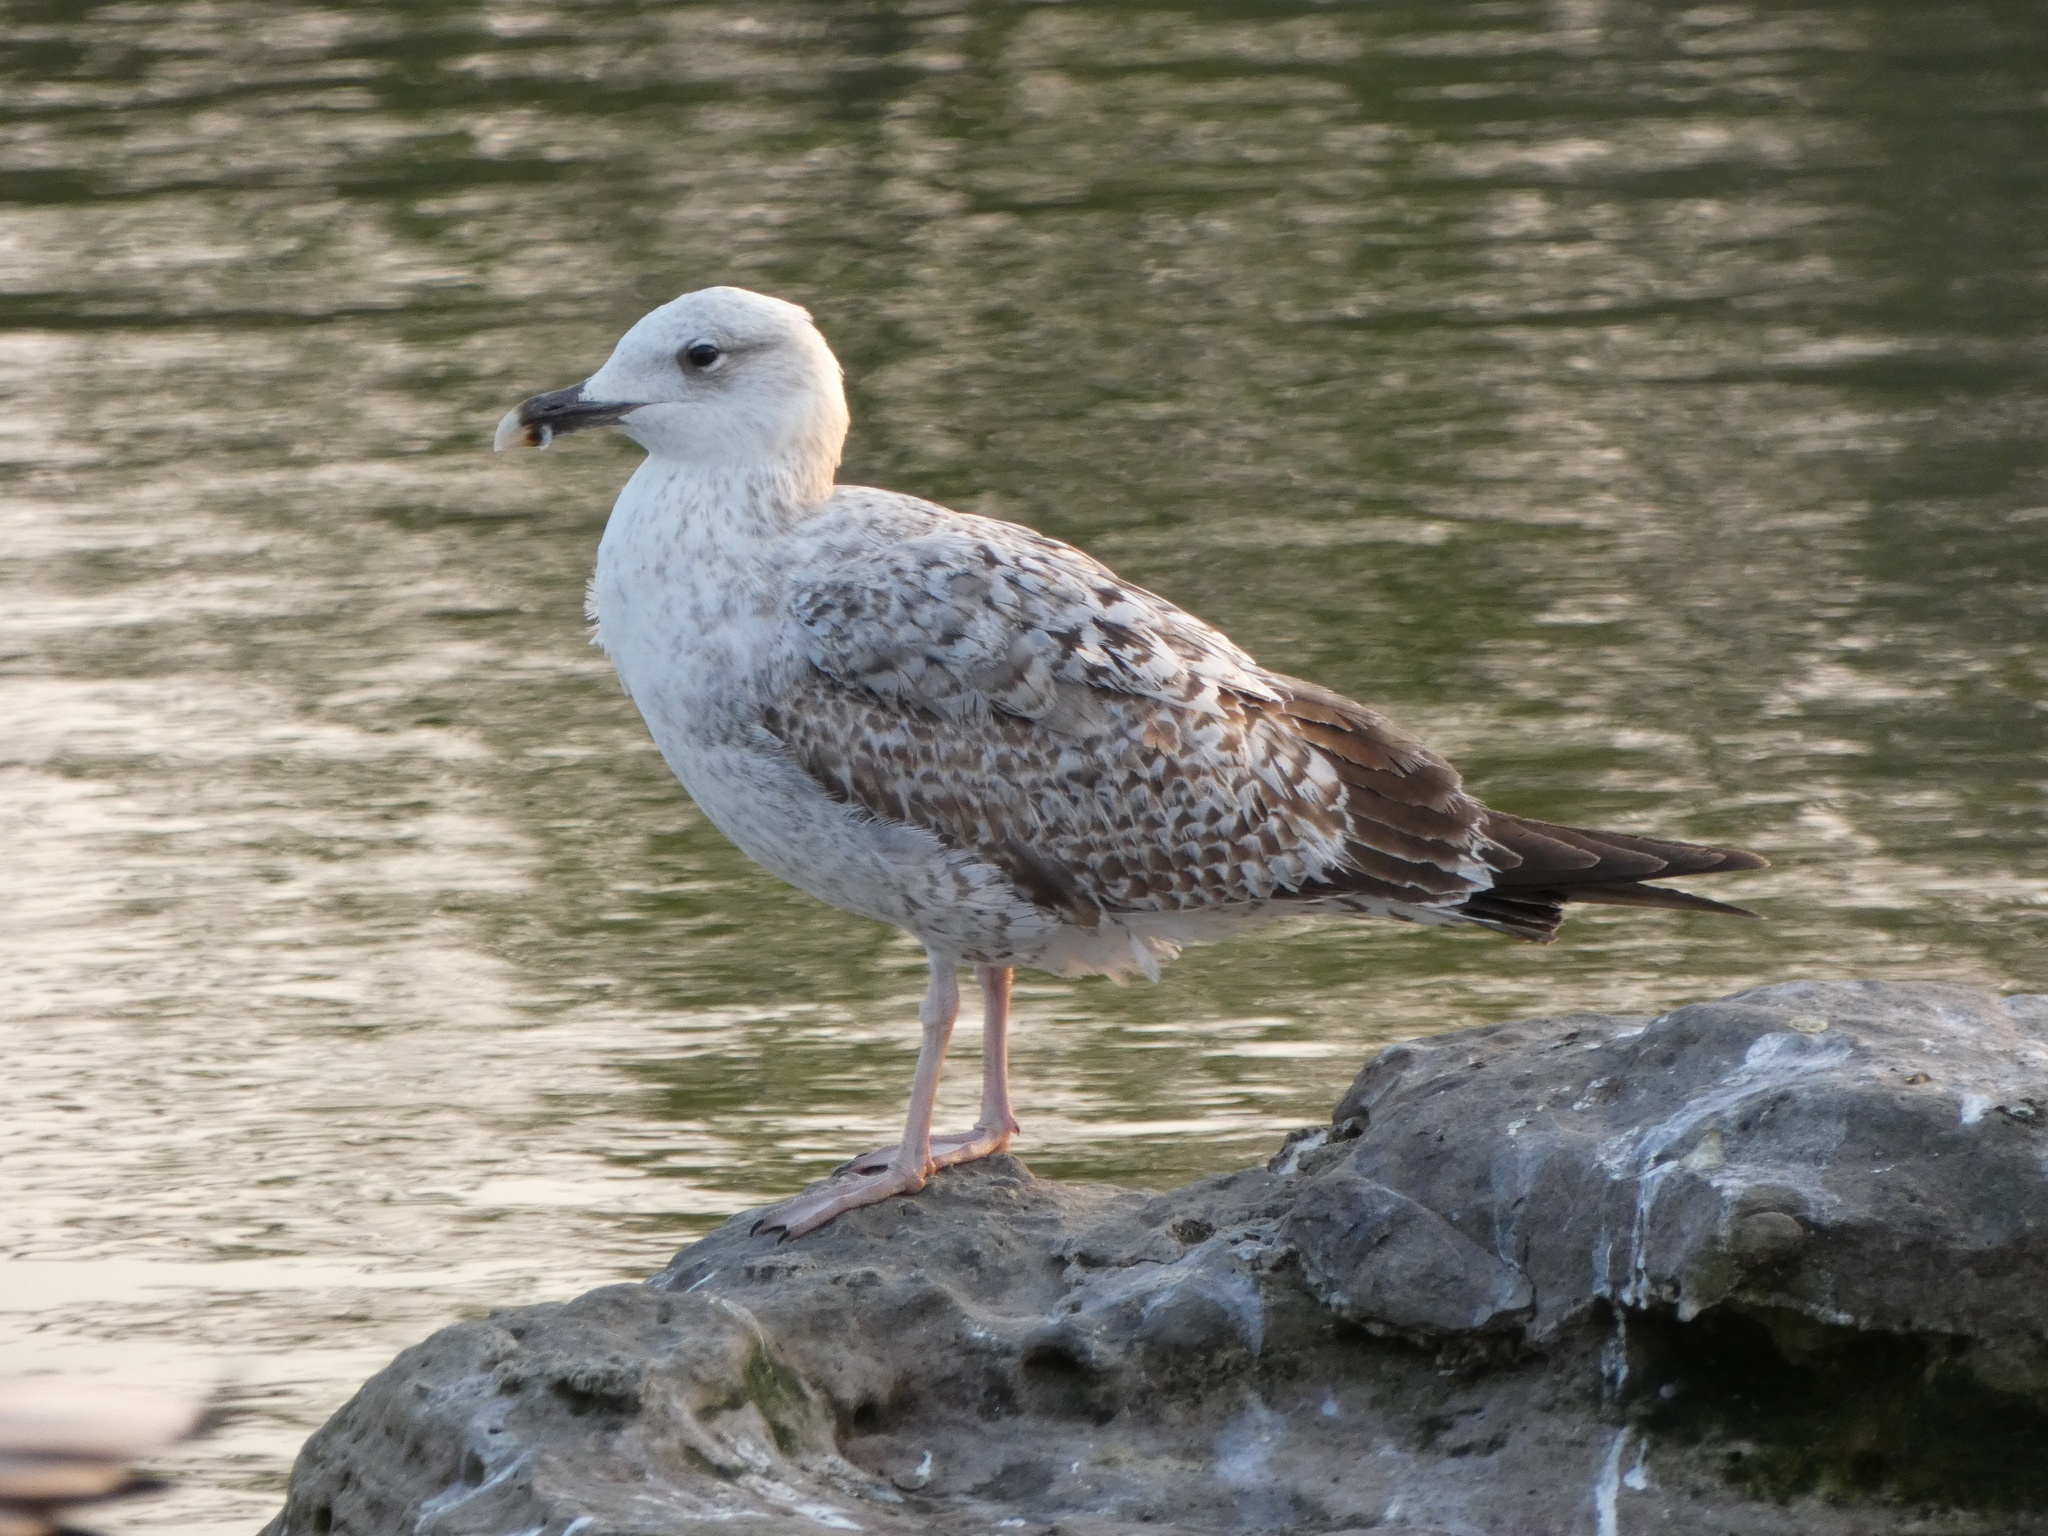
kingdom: Animalia
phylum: Chordata
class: Aves
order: Charadriiformes
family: Laridae
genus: Larus
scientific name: Larus michahellis
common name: Yellow-legged gull
